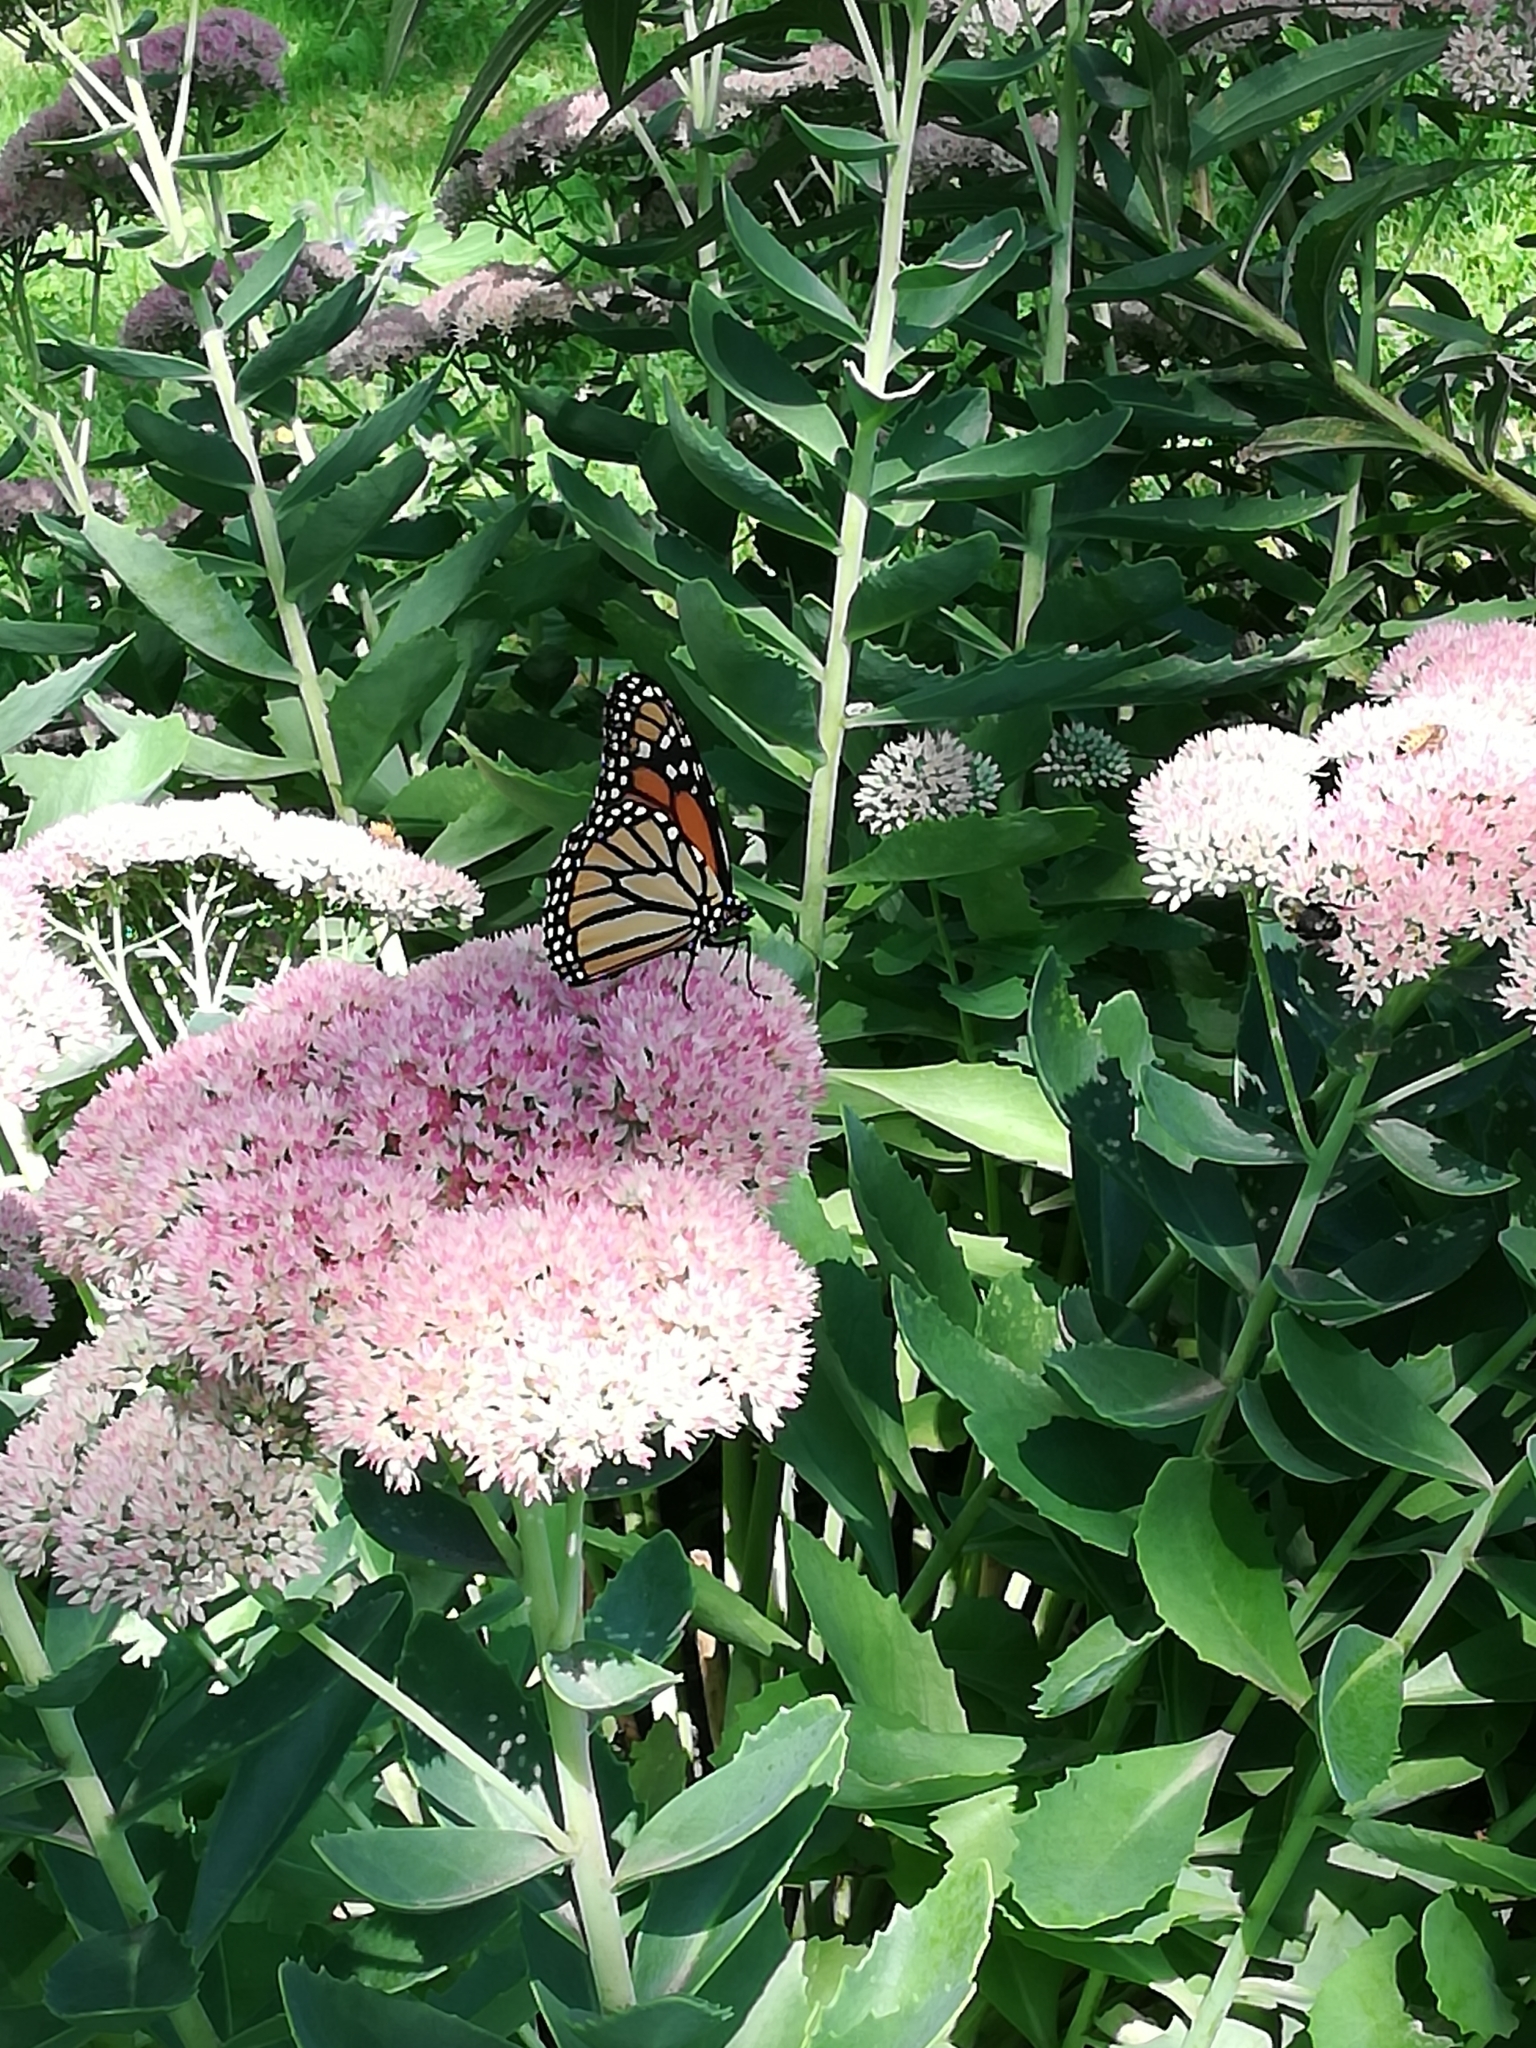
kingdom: Animalia
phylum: Arthropoda
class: Insecta
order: Lepidoptera
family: Nymphalidae
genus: Danaus
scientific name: Danaus plexippus
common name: Monarch
